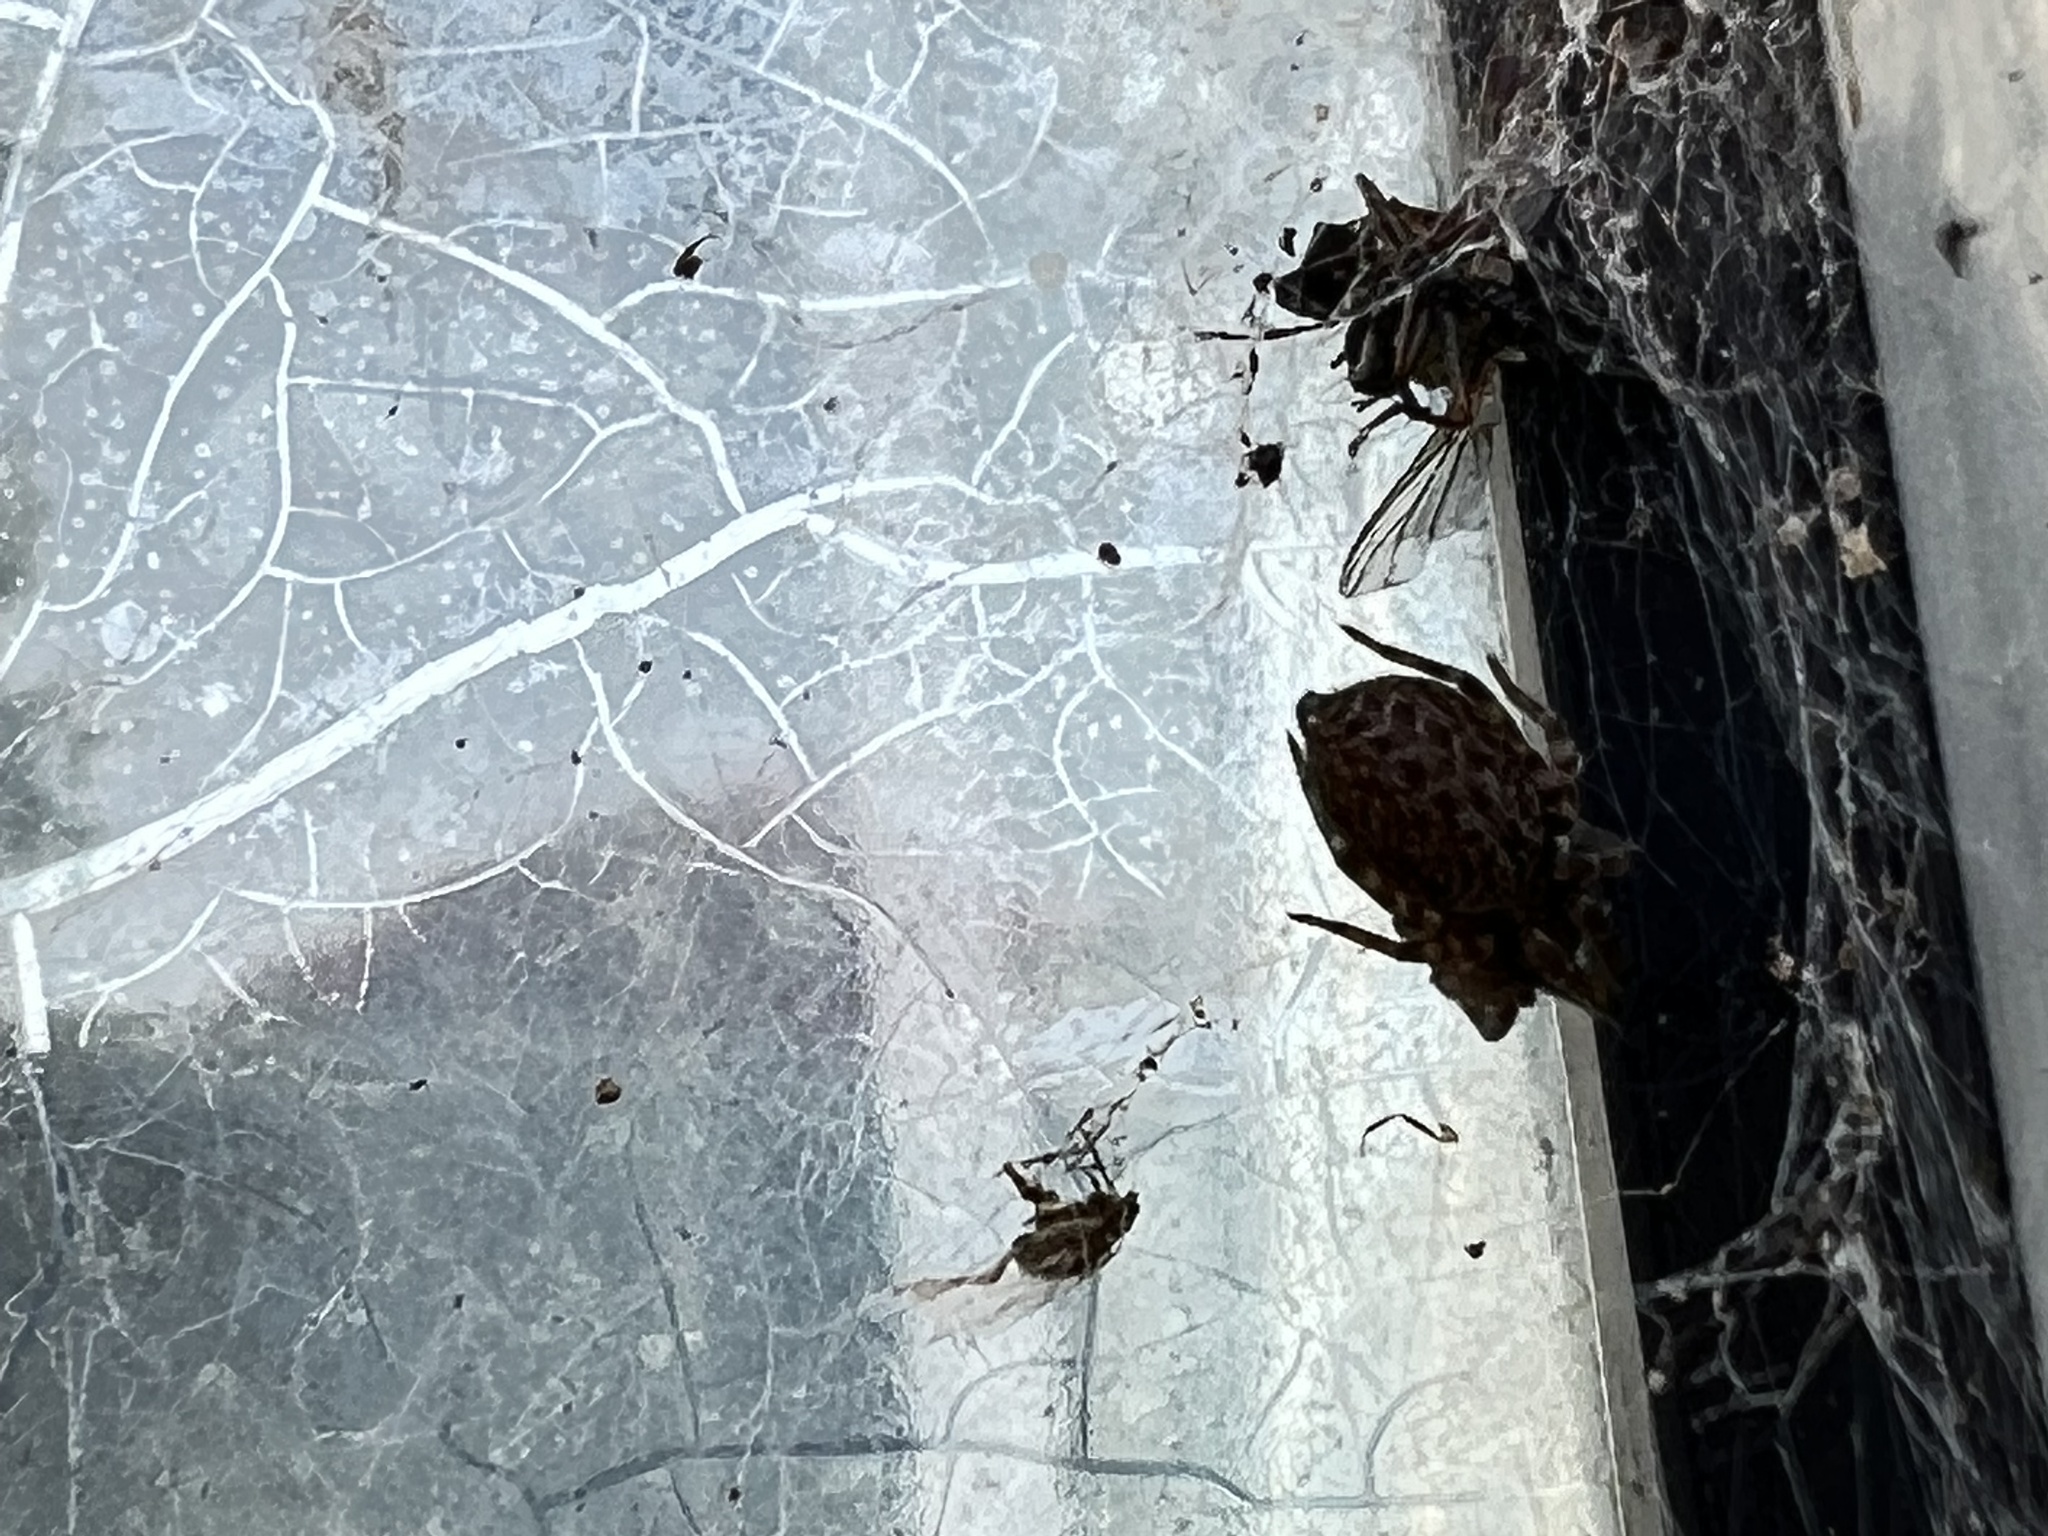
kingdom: Animalia
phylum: Arthropoda
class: Arachnida
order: Araneae
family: Desidae
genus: Badumna
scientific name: Badumna longinqua
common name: Gray house spider
